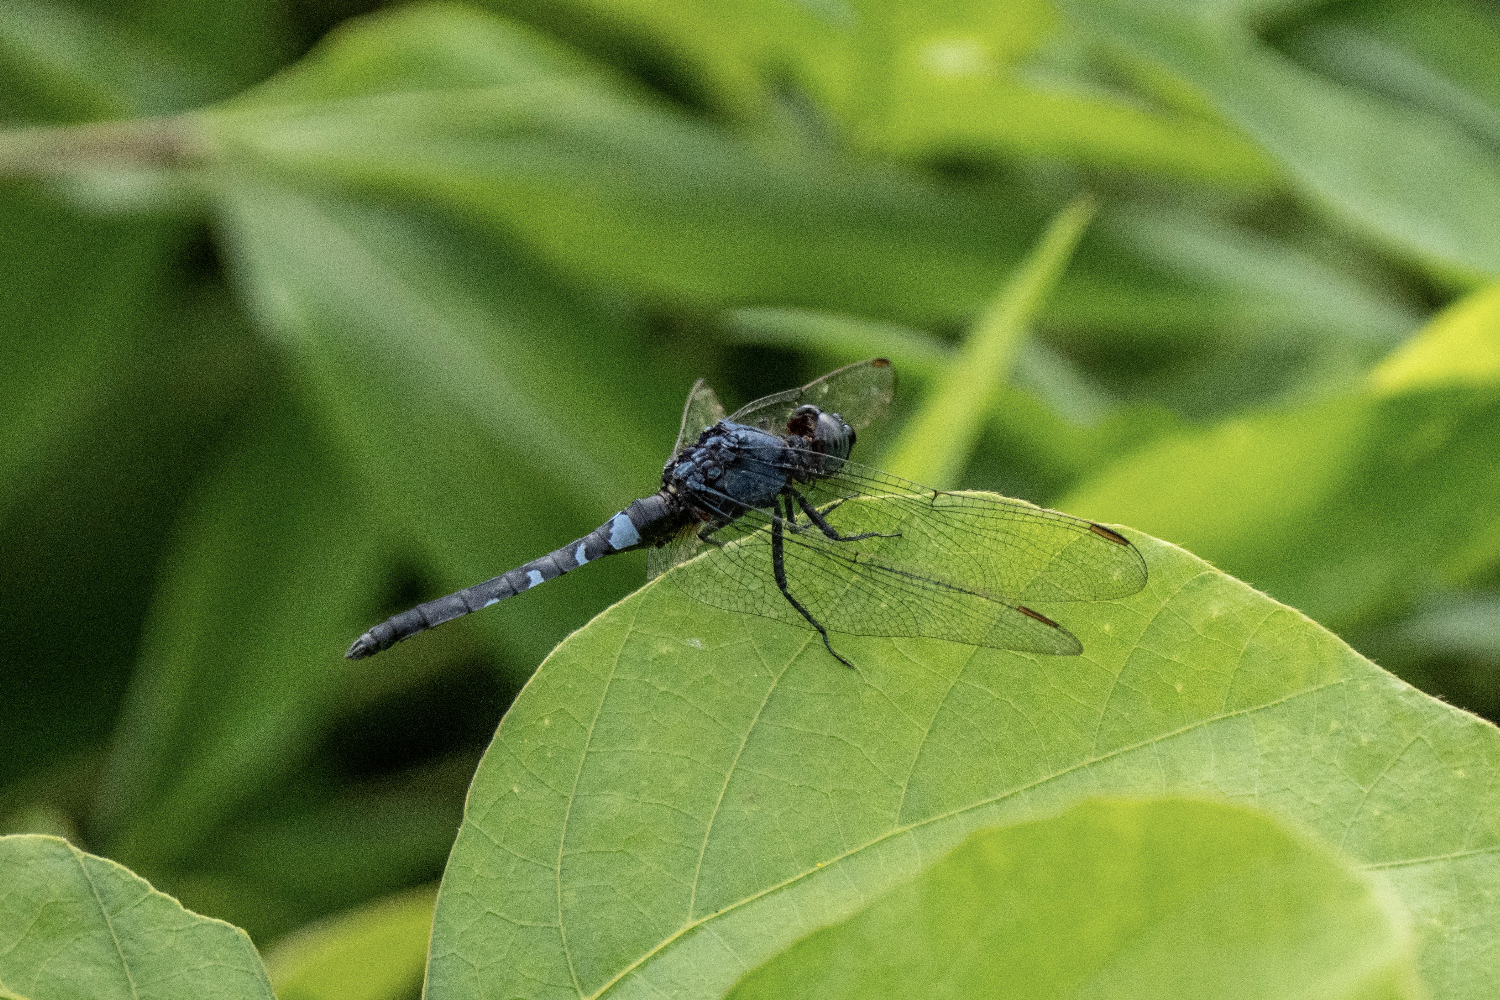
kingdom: Animalia
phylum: Arthropoda
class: Insecta
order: Odonata
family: Libellulidae
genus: Orthetrum
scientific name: Orthetrum glaucum
